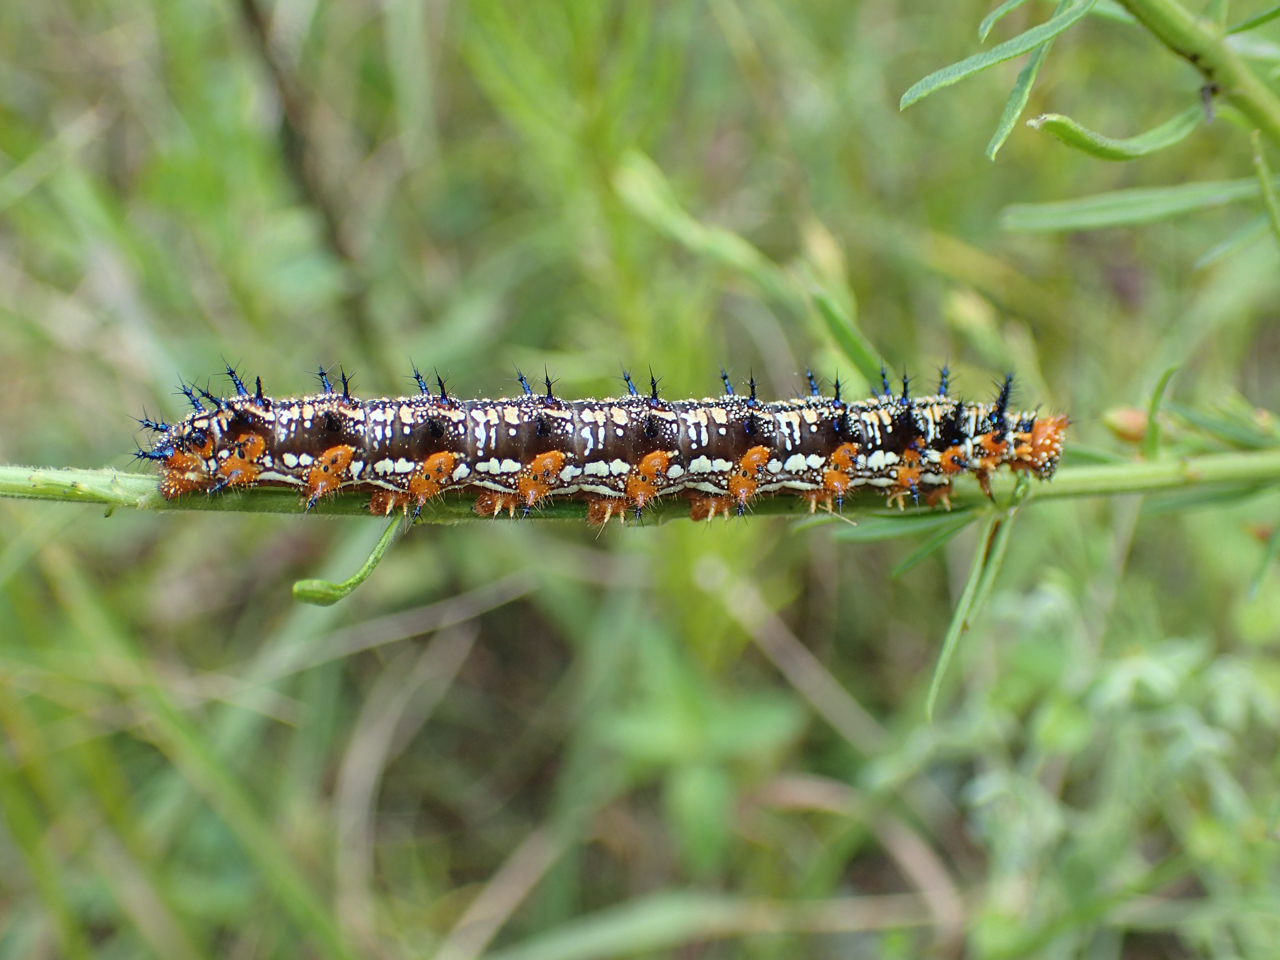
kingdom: Animalia
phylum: Arthropoda
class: Insecta
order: Lepidoptera
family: Nymphalidae
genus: Junonia
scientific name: Junonia coenia
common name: Common buckeye
